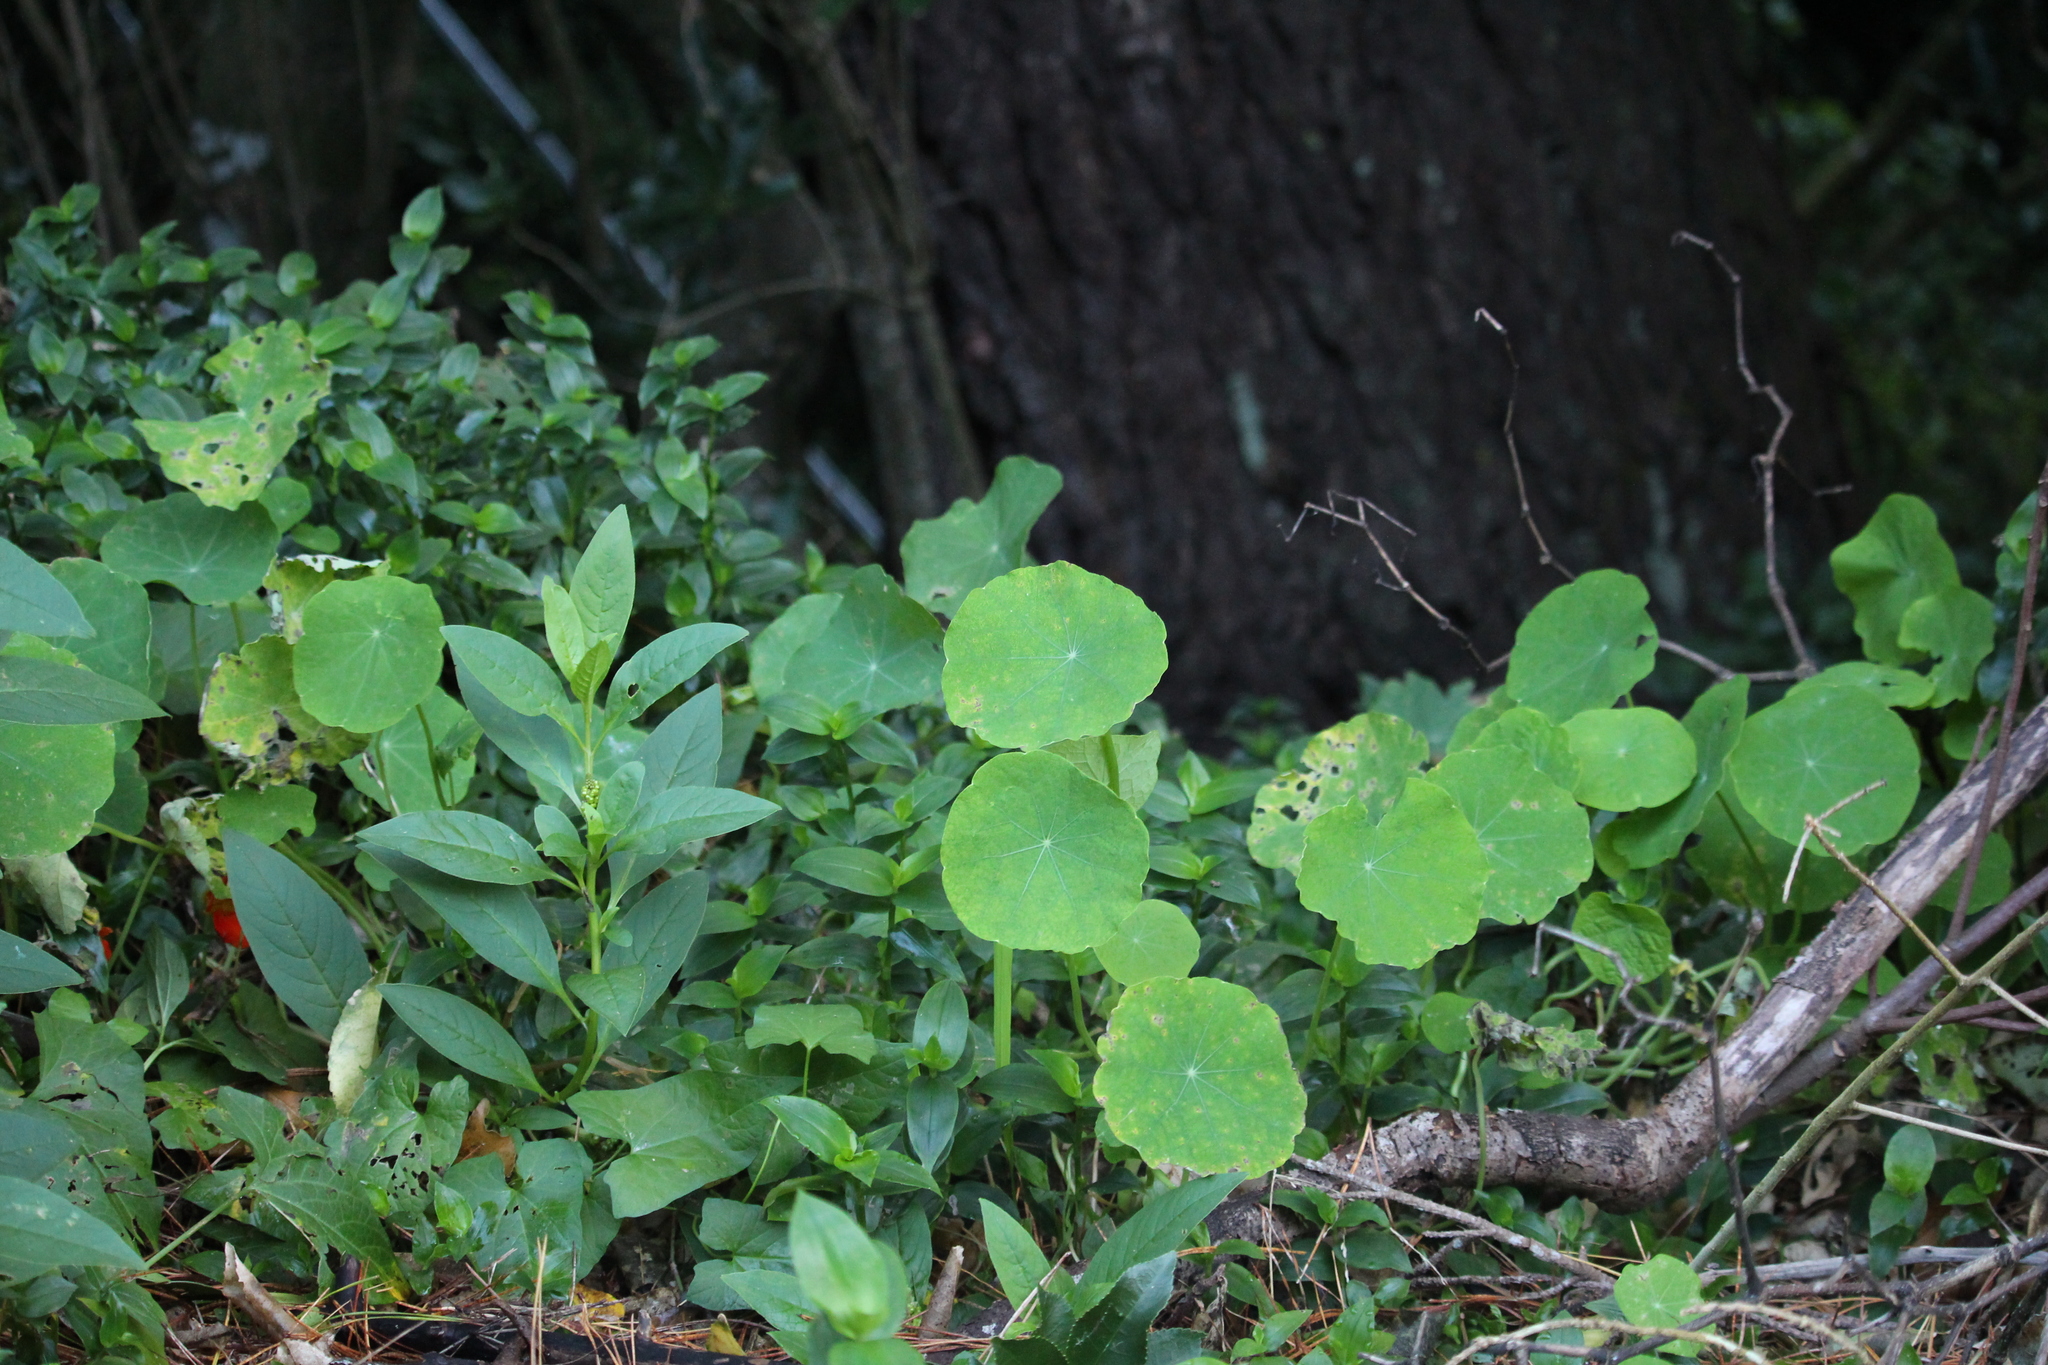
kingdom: Plantae
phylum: Tracheophyta
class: Magnoliopsida
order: Brassicales
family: Tropaeolaceae
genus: Tropaeolum
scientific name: Tropaeolum majus
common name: Nasturtium
